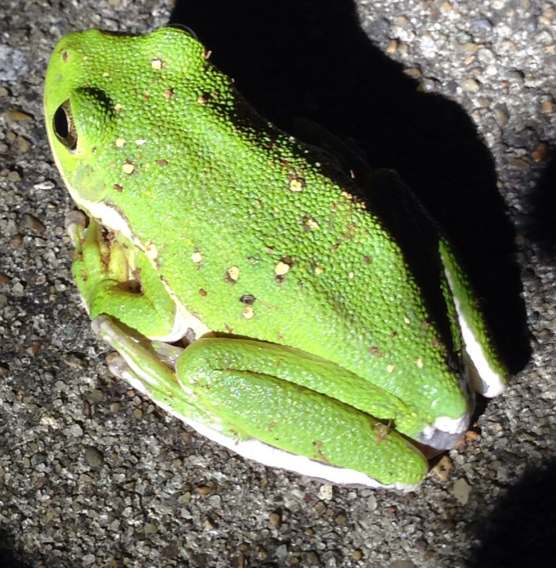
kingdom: Animalia
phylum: Chordata
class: Amphibia
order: Anura
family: Hylidae
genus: Dryophytes
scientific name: Dryophytes gratiosus
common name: Barking treefrog
